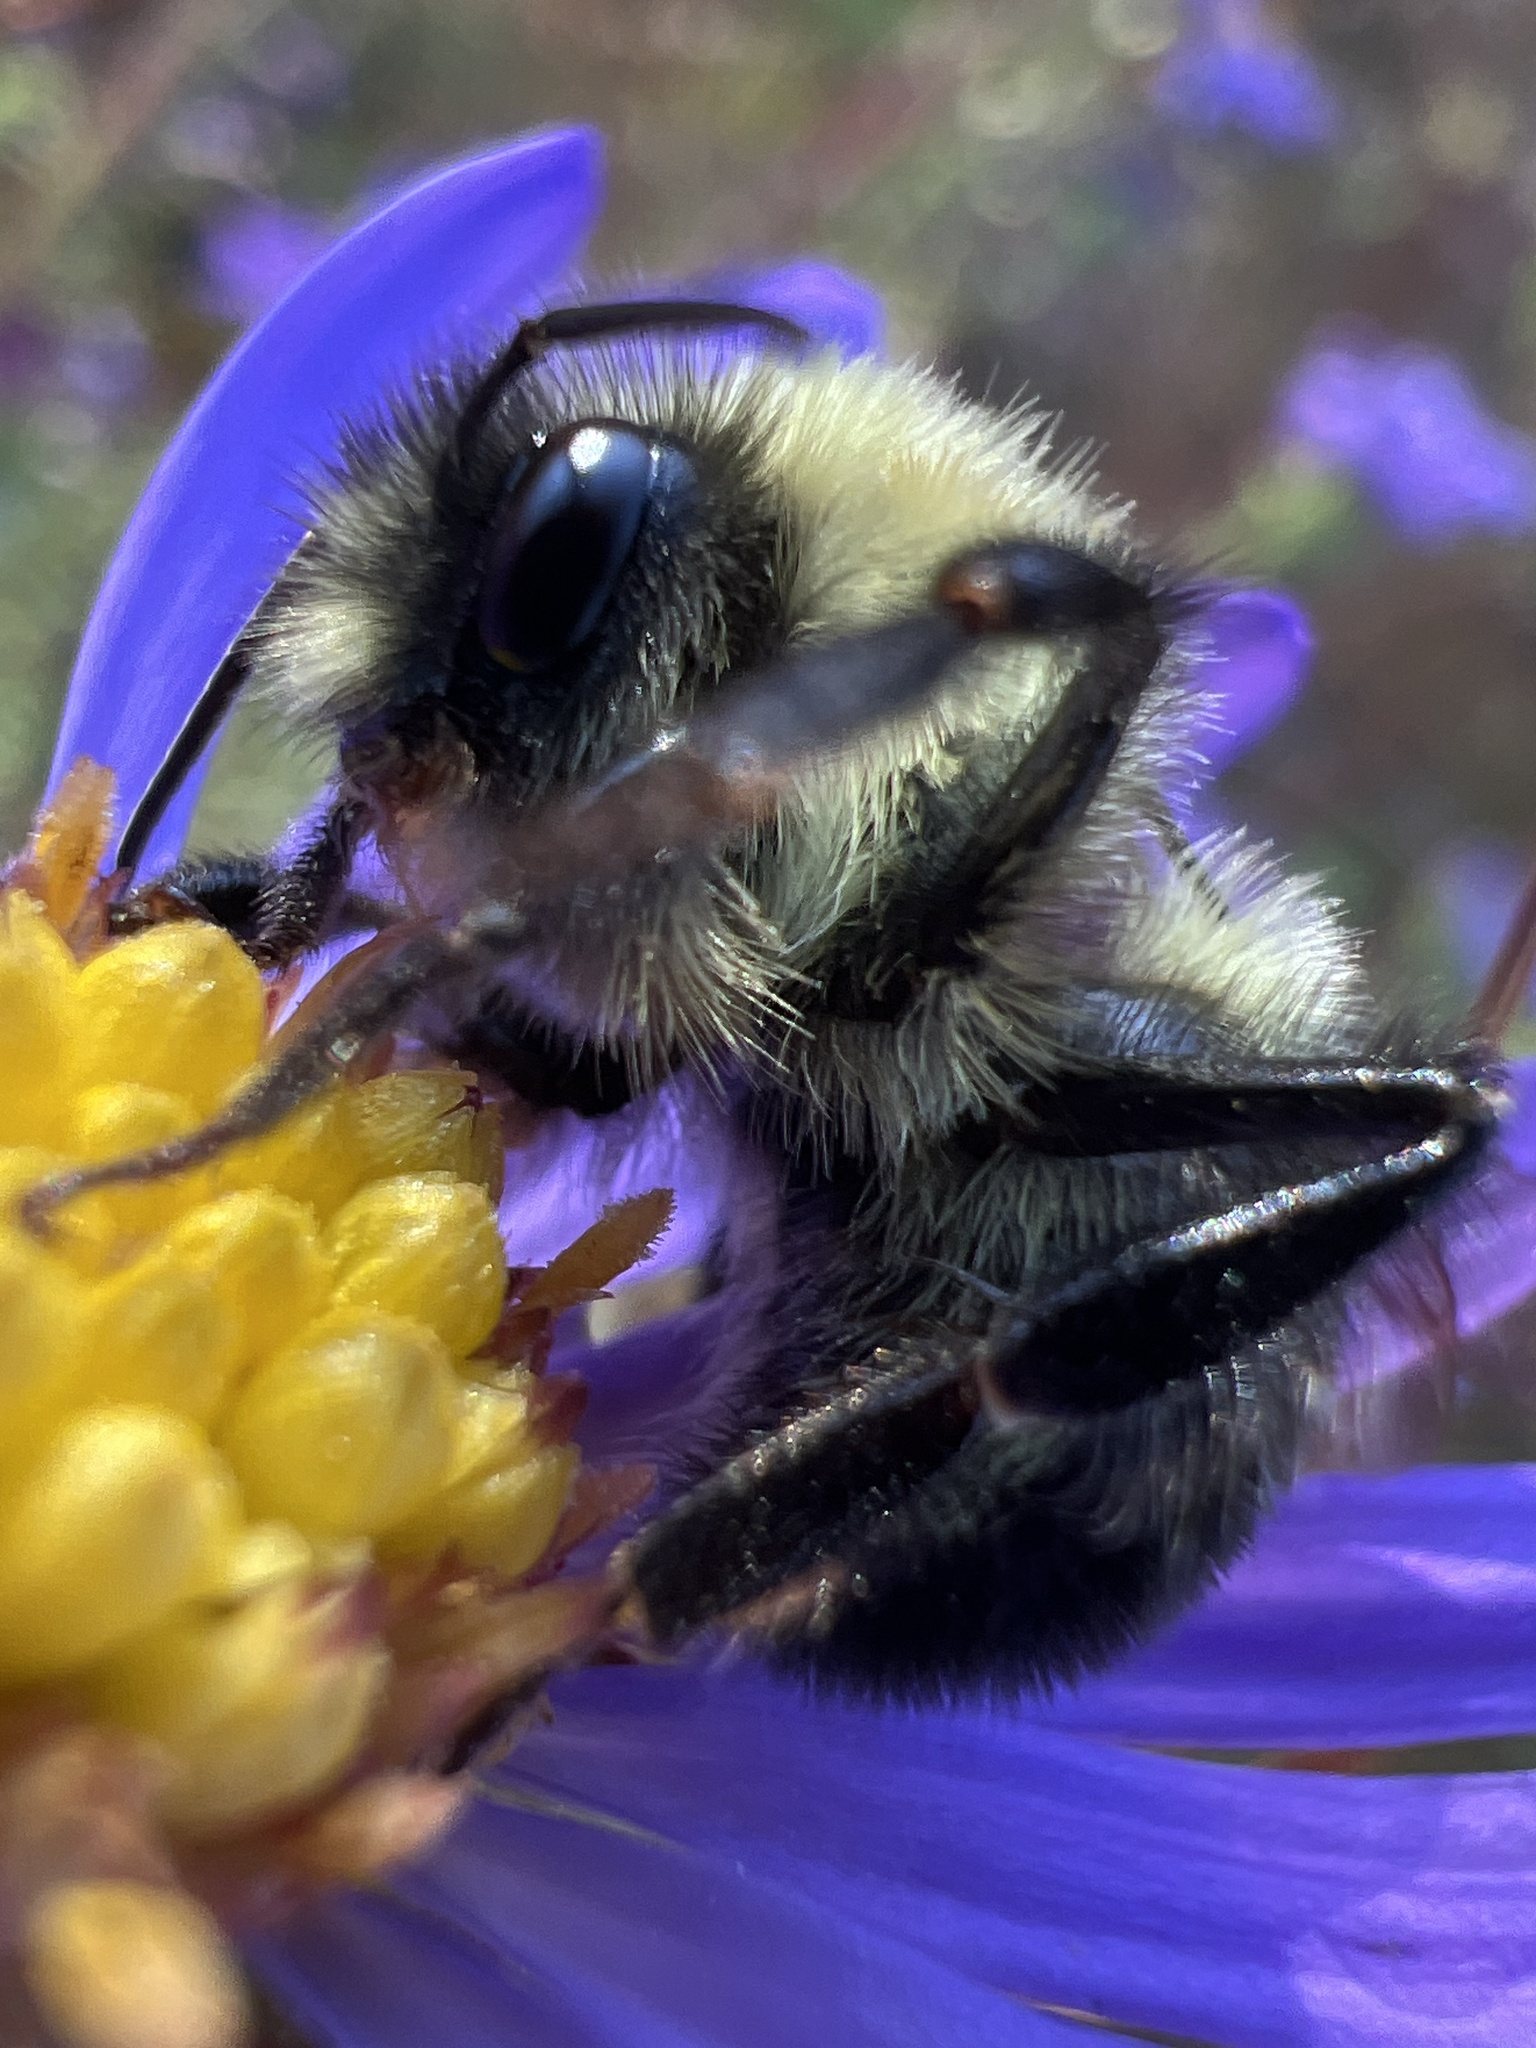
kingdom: Animalia
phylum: Arthropoda
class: Insecta
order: Hymenoptera
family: Apidae
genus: Bombus
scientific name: Bombus impatiens
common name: Common eastern bumble bee
